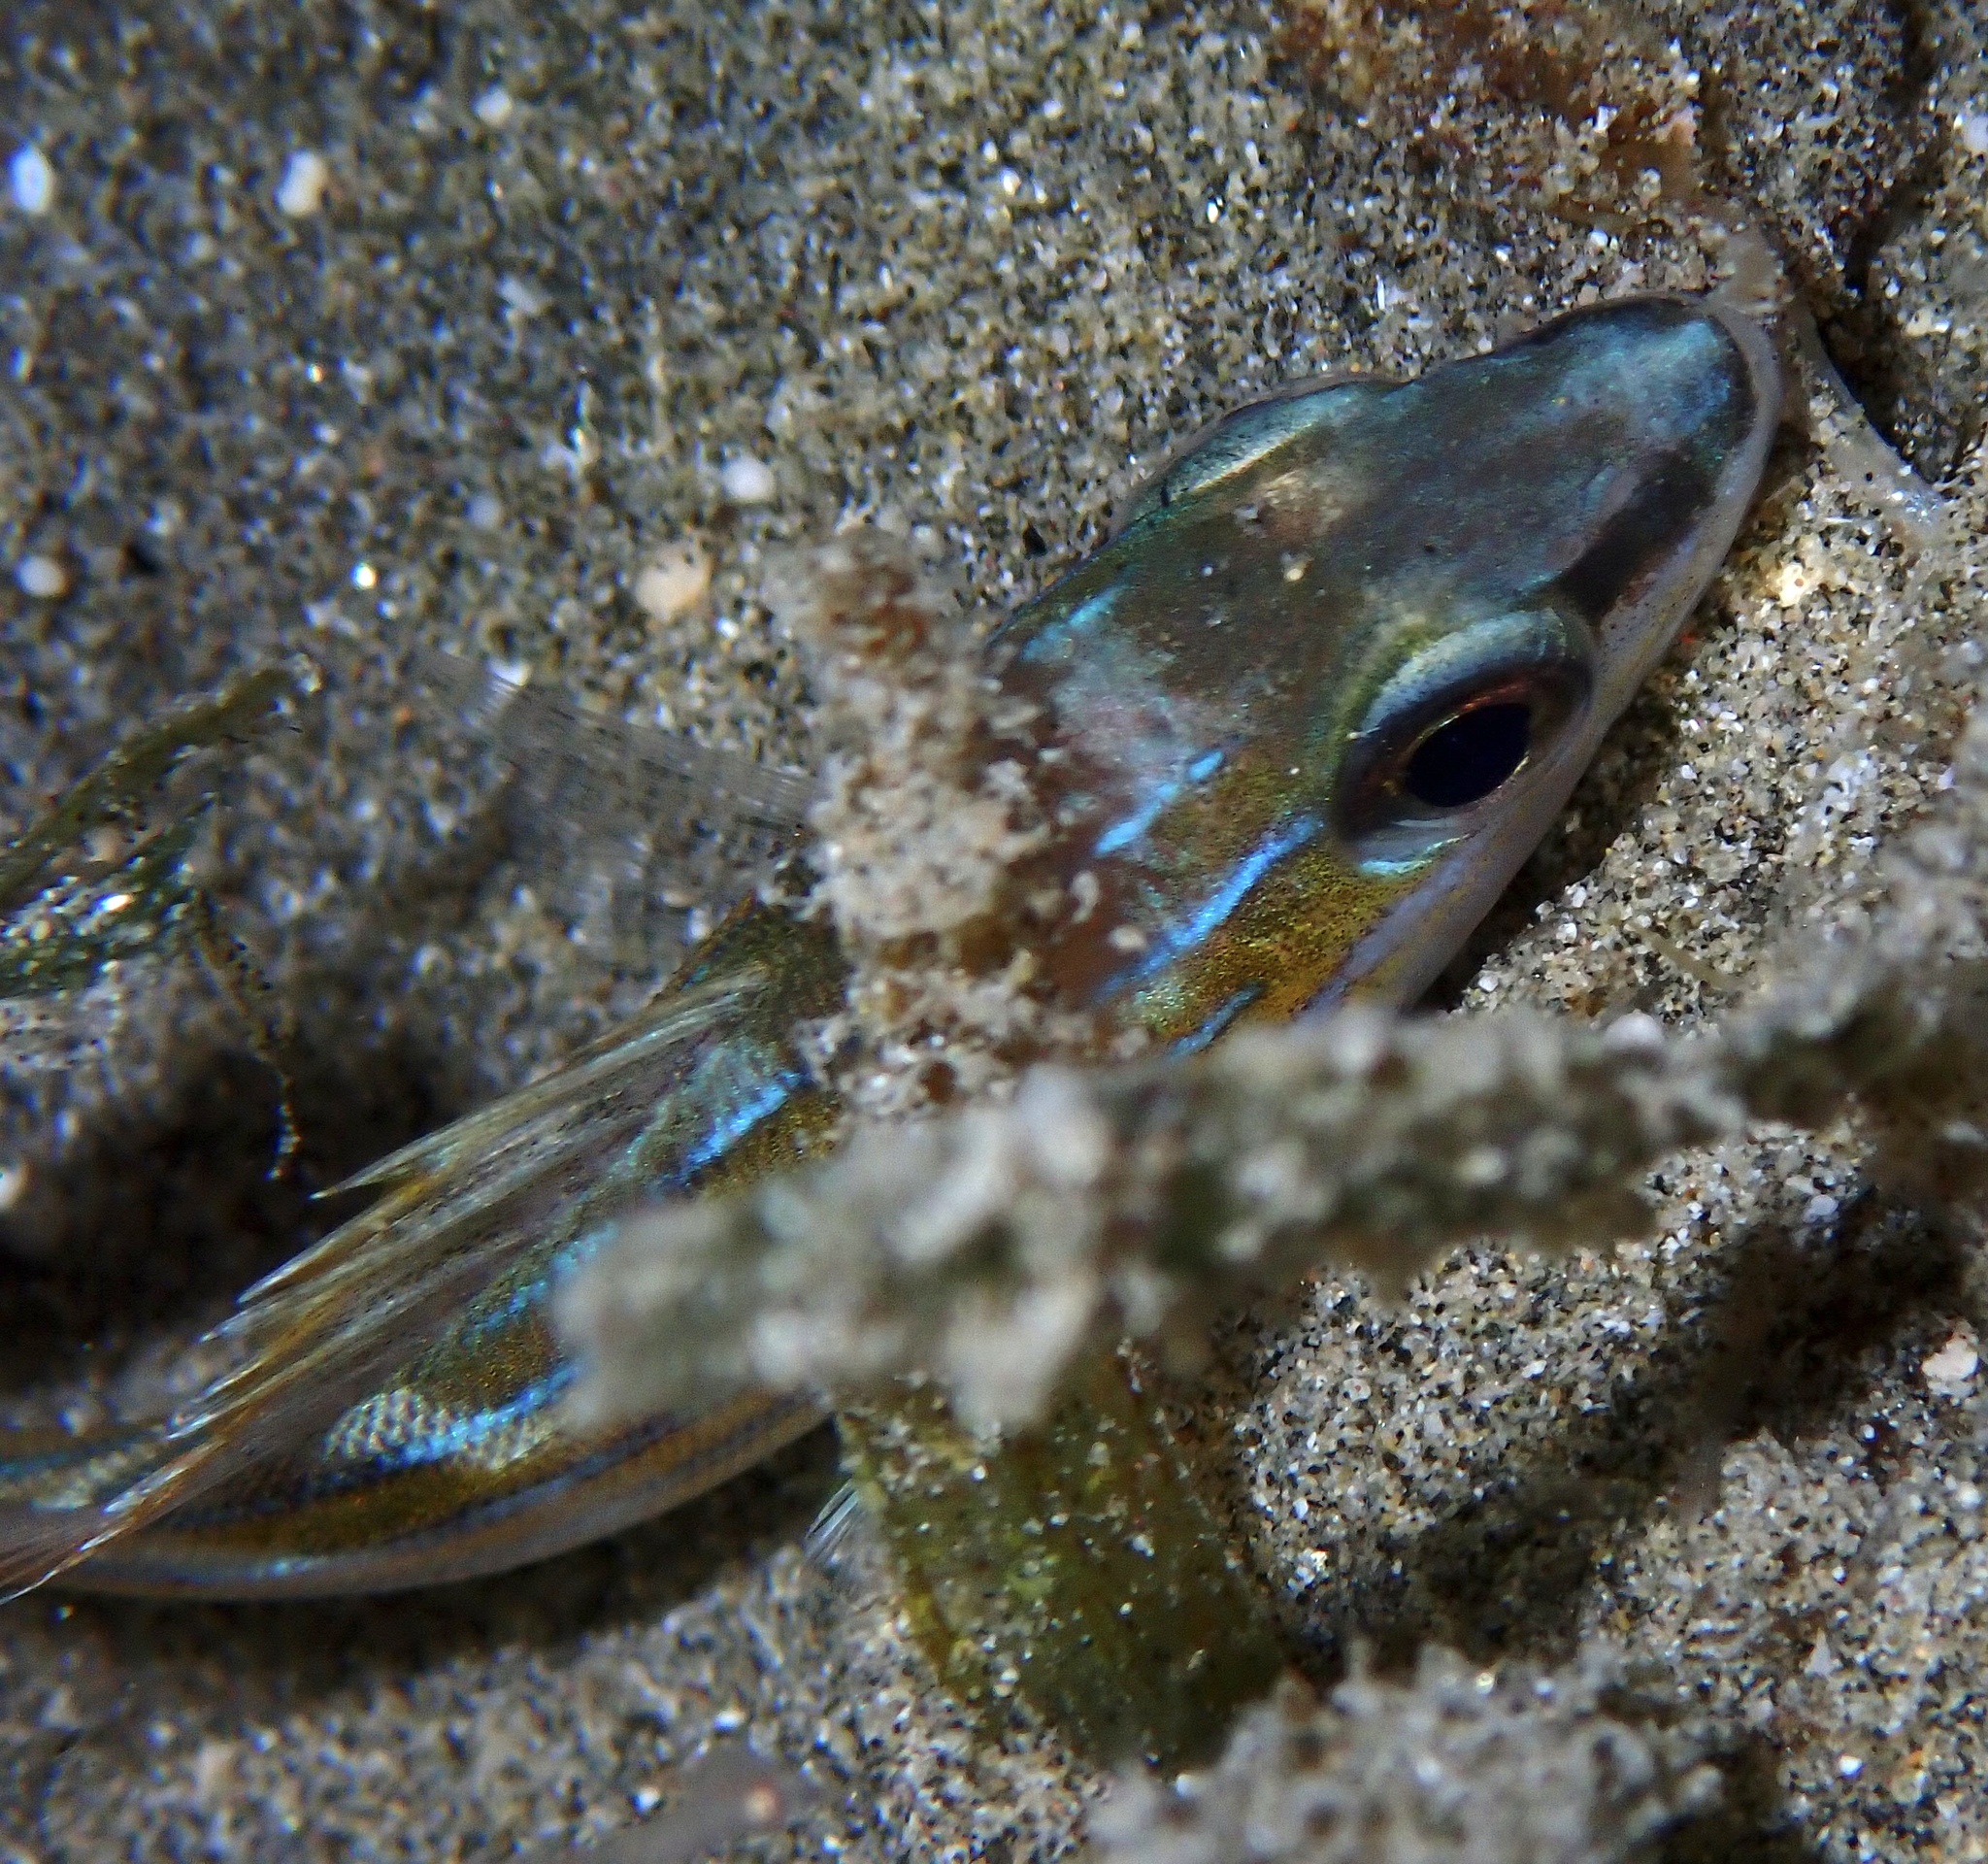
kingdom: Animalia
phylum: Chordata
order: Perciformes
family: Lutjanidae
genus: Lutjanus
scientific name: Lutjanus kasmira
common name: Common bluestripe snapper
